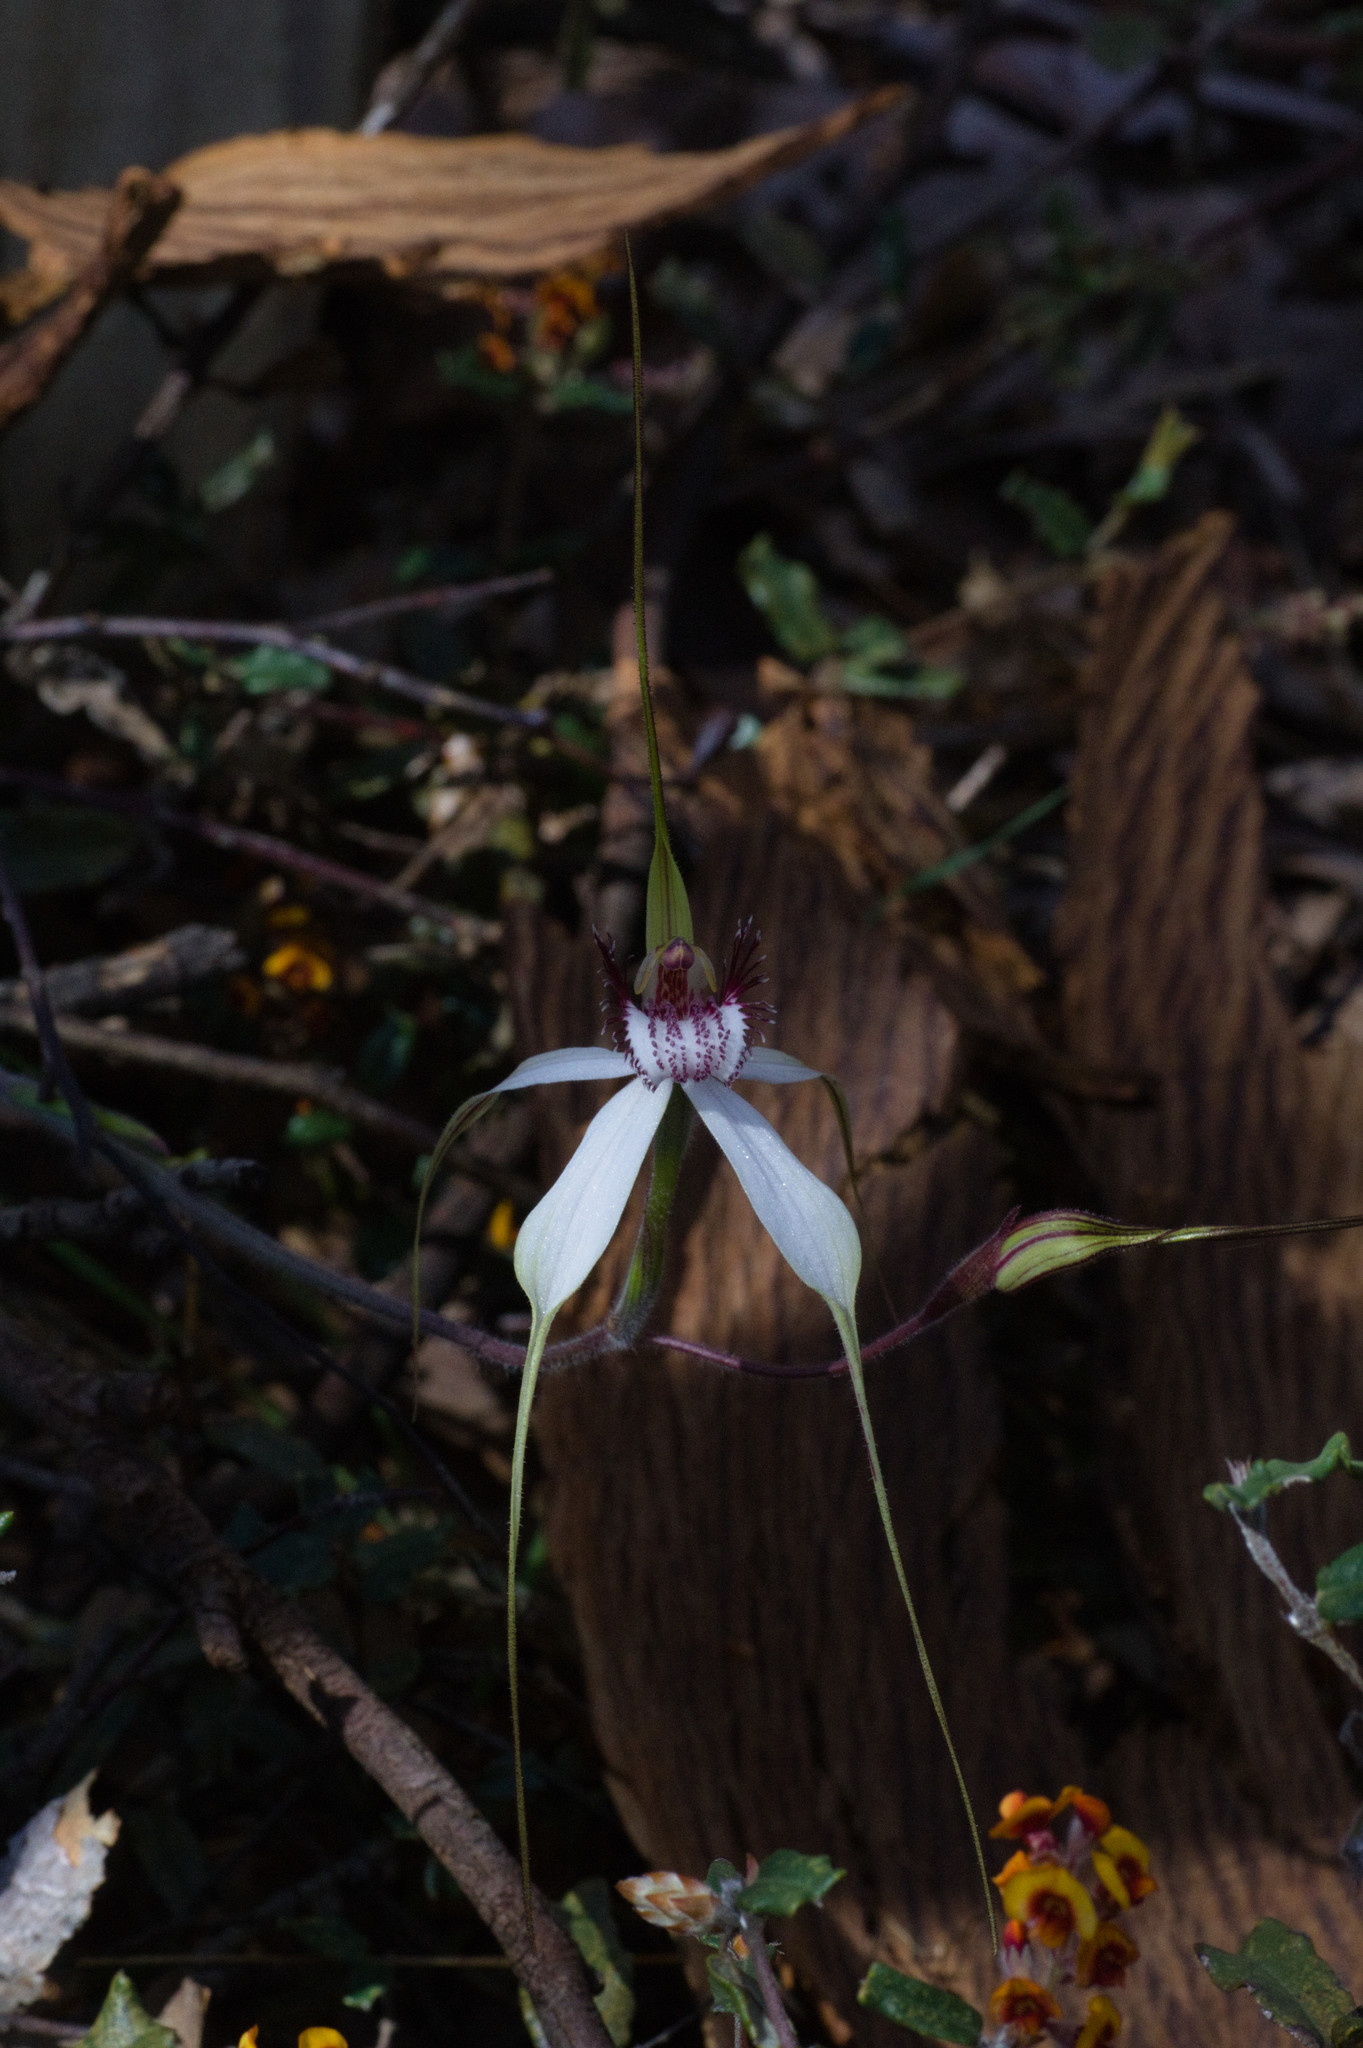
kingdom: Plantae
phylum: Tracheophyta
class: Liliopsida
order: Asparagales
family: Orchidaceae
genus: Caladenia
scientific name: Caladenia longicauda
